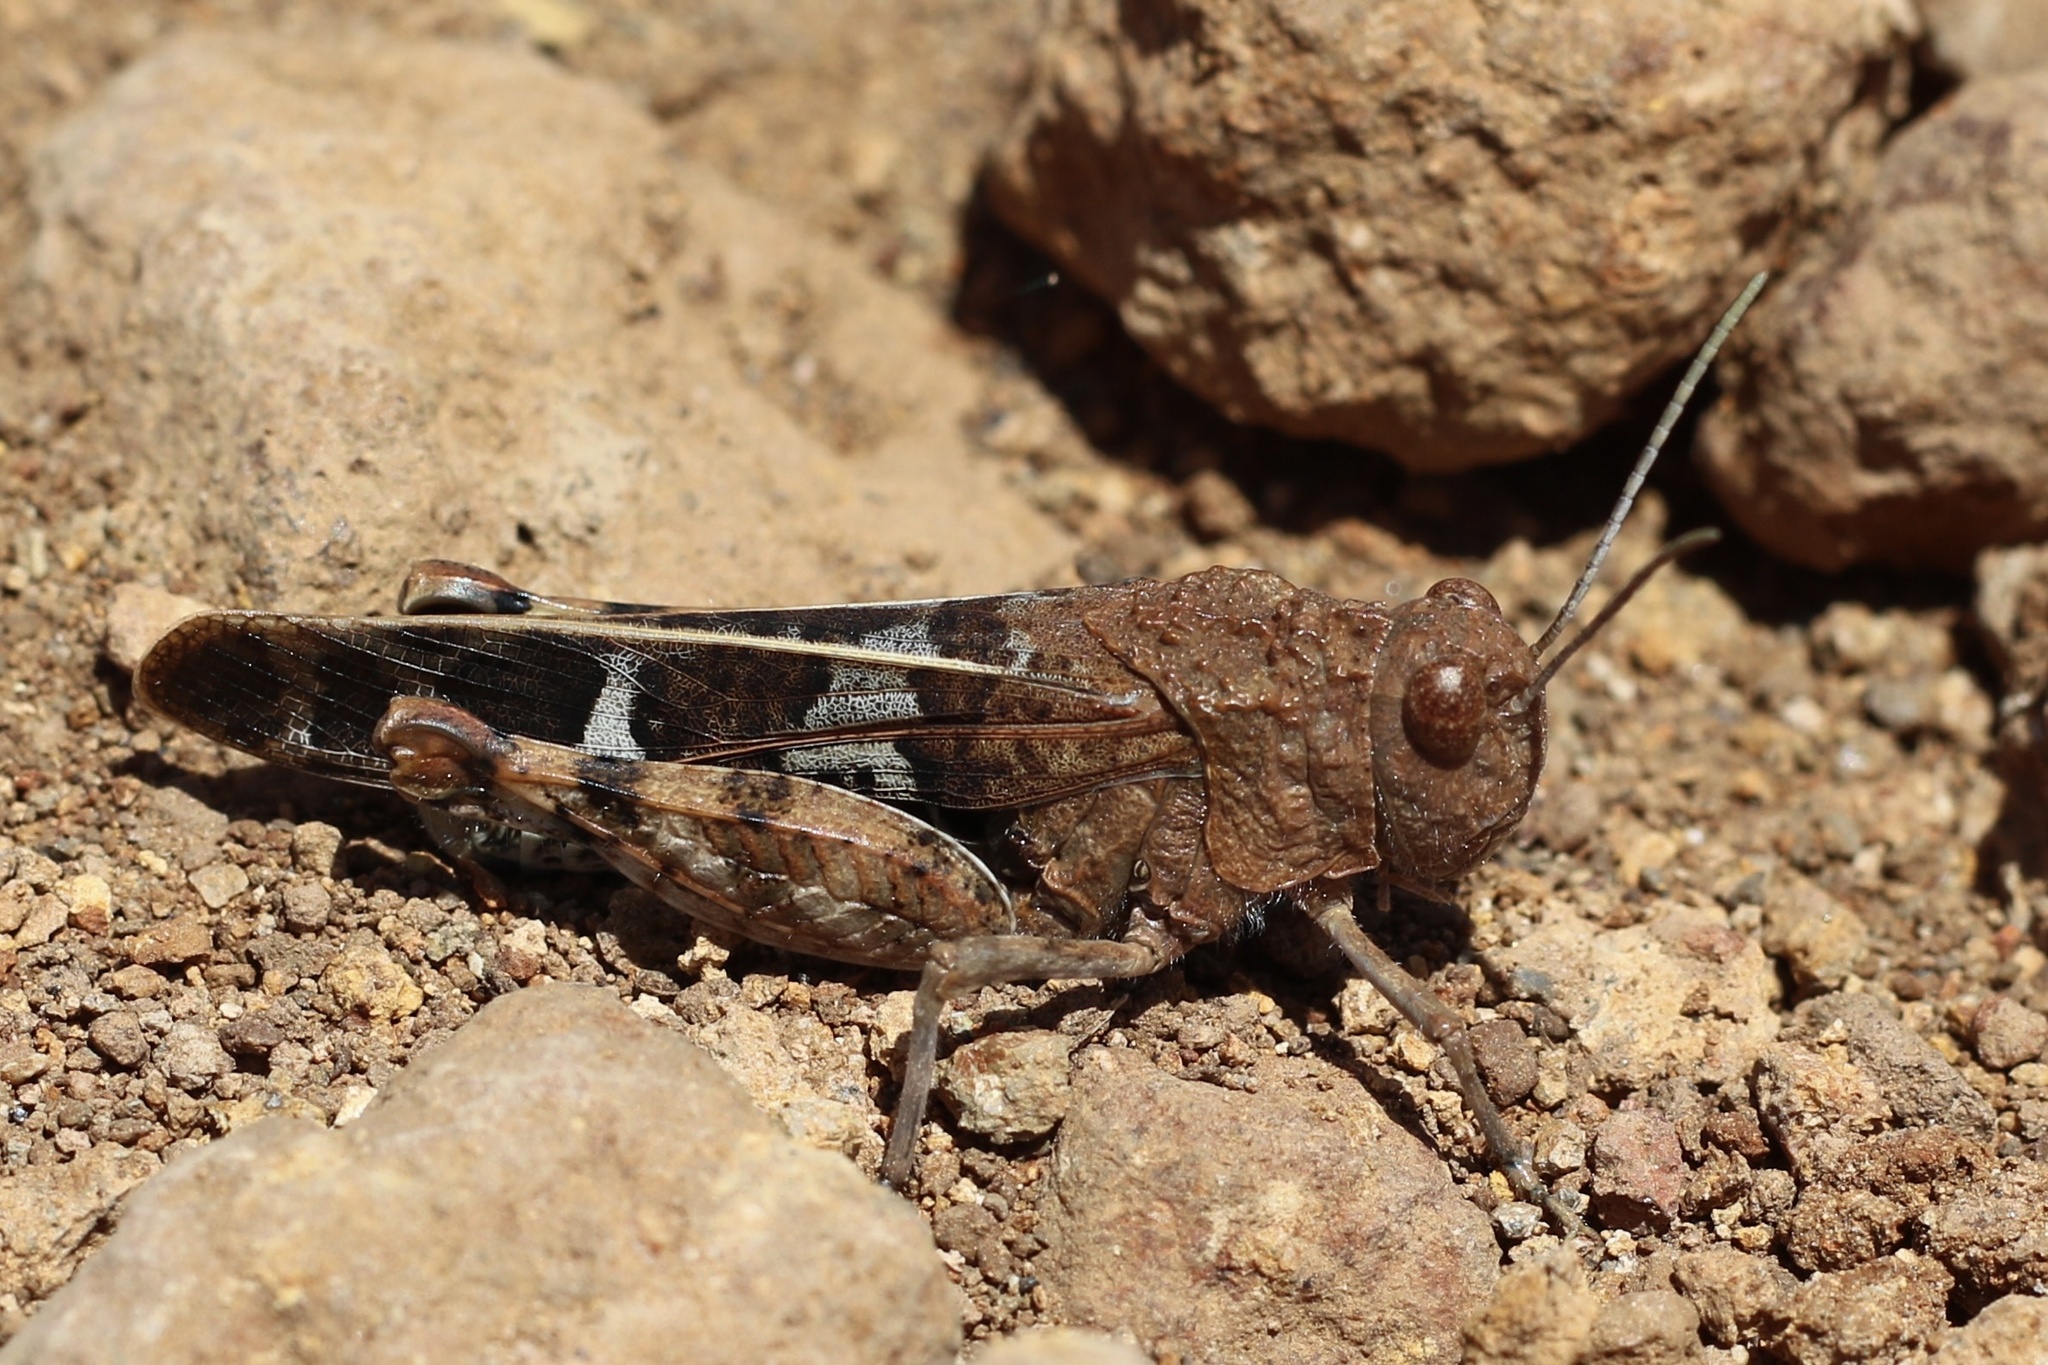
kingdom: Animalia
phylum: Arthropoda
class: Insecta
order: Orthoptera
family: Acrididae
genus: Leprus
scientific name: Leprus intermedius
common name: Saussure's blue-winged grasshopper
